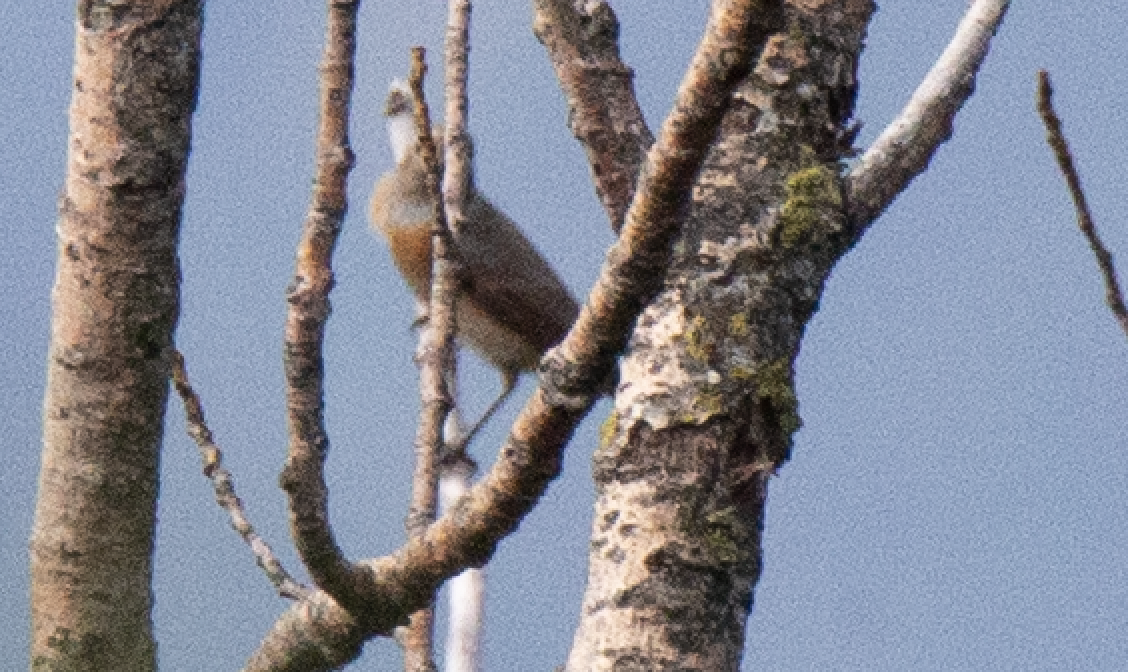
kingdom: Animalia
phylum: Chordata
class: Aves
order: Passeriformes
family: Muscicapidae
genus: Phoenicurus
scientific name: Phoenicurus phoenicurus
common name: Common redstart
